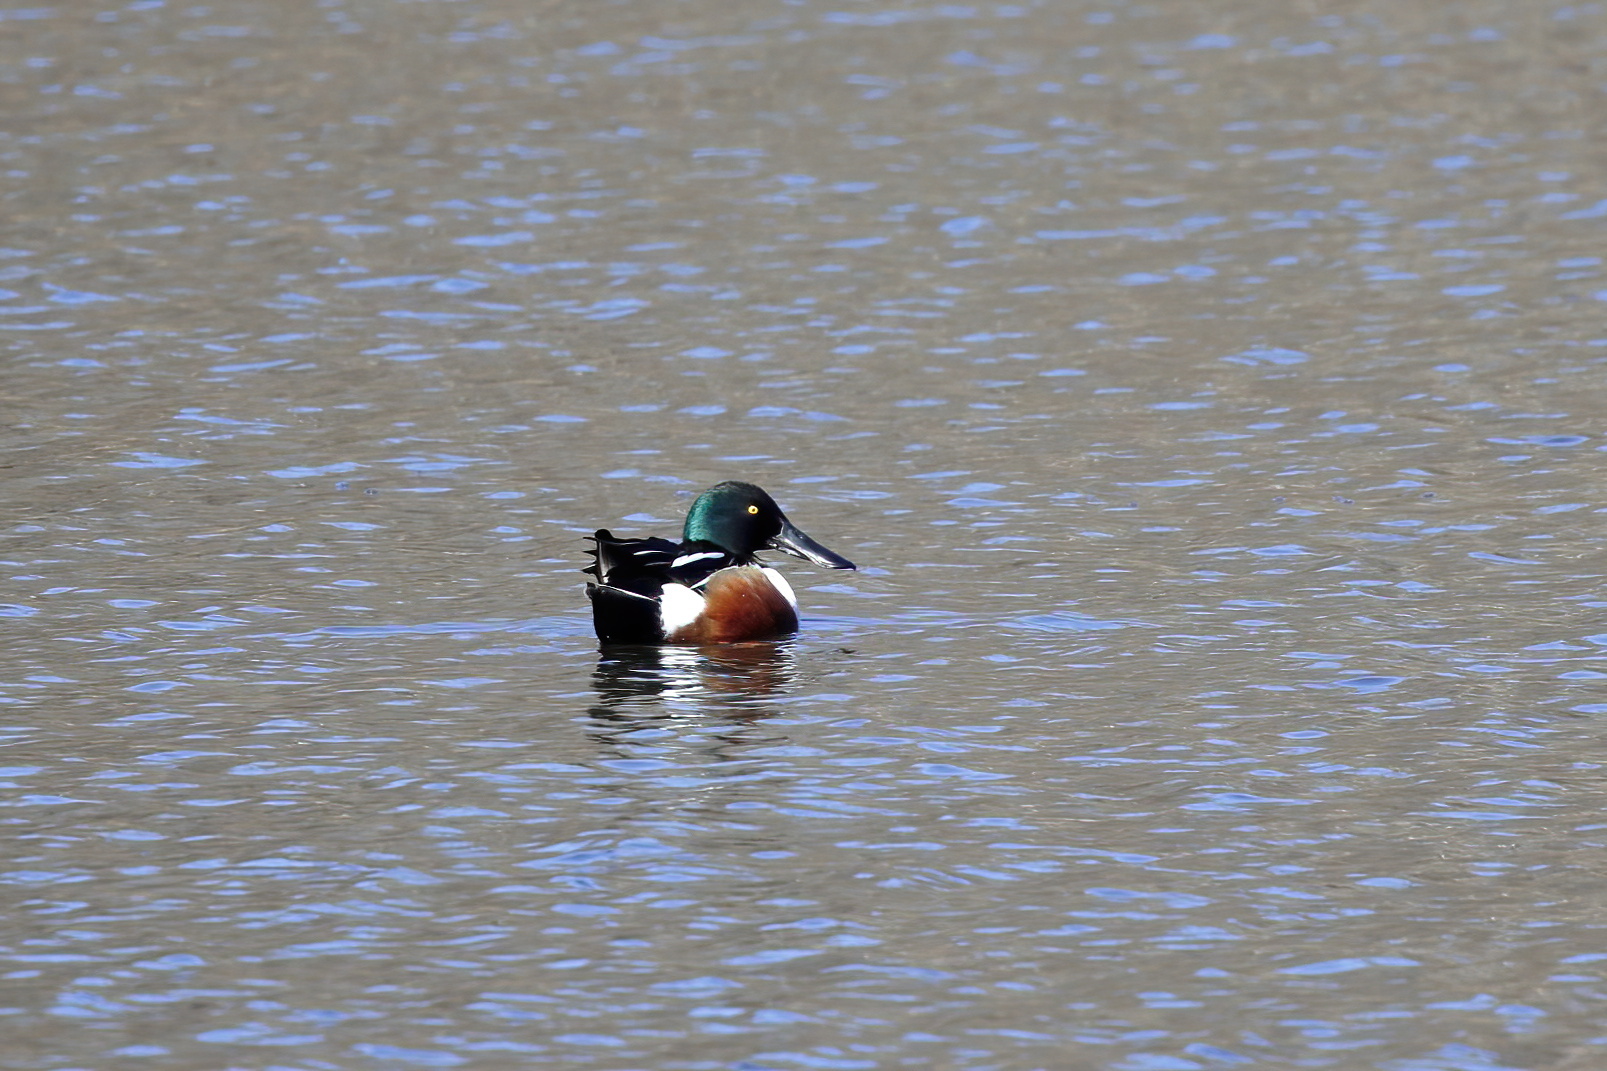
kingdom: Animalia
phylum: Chordata
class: Aves
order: Anseriformes
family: Anatidae
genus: Spatula
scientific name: Spatula clypeata
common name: Northern shoveler
